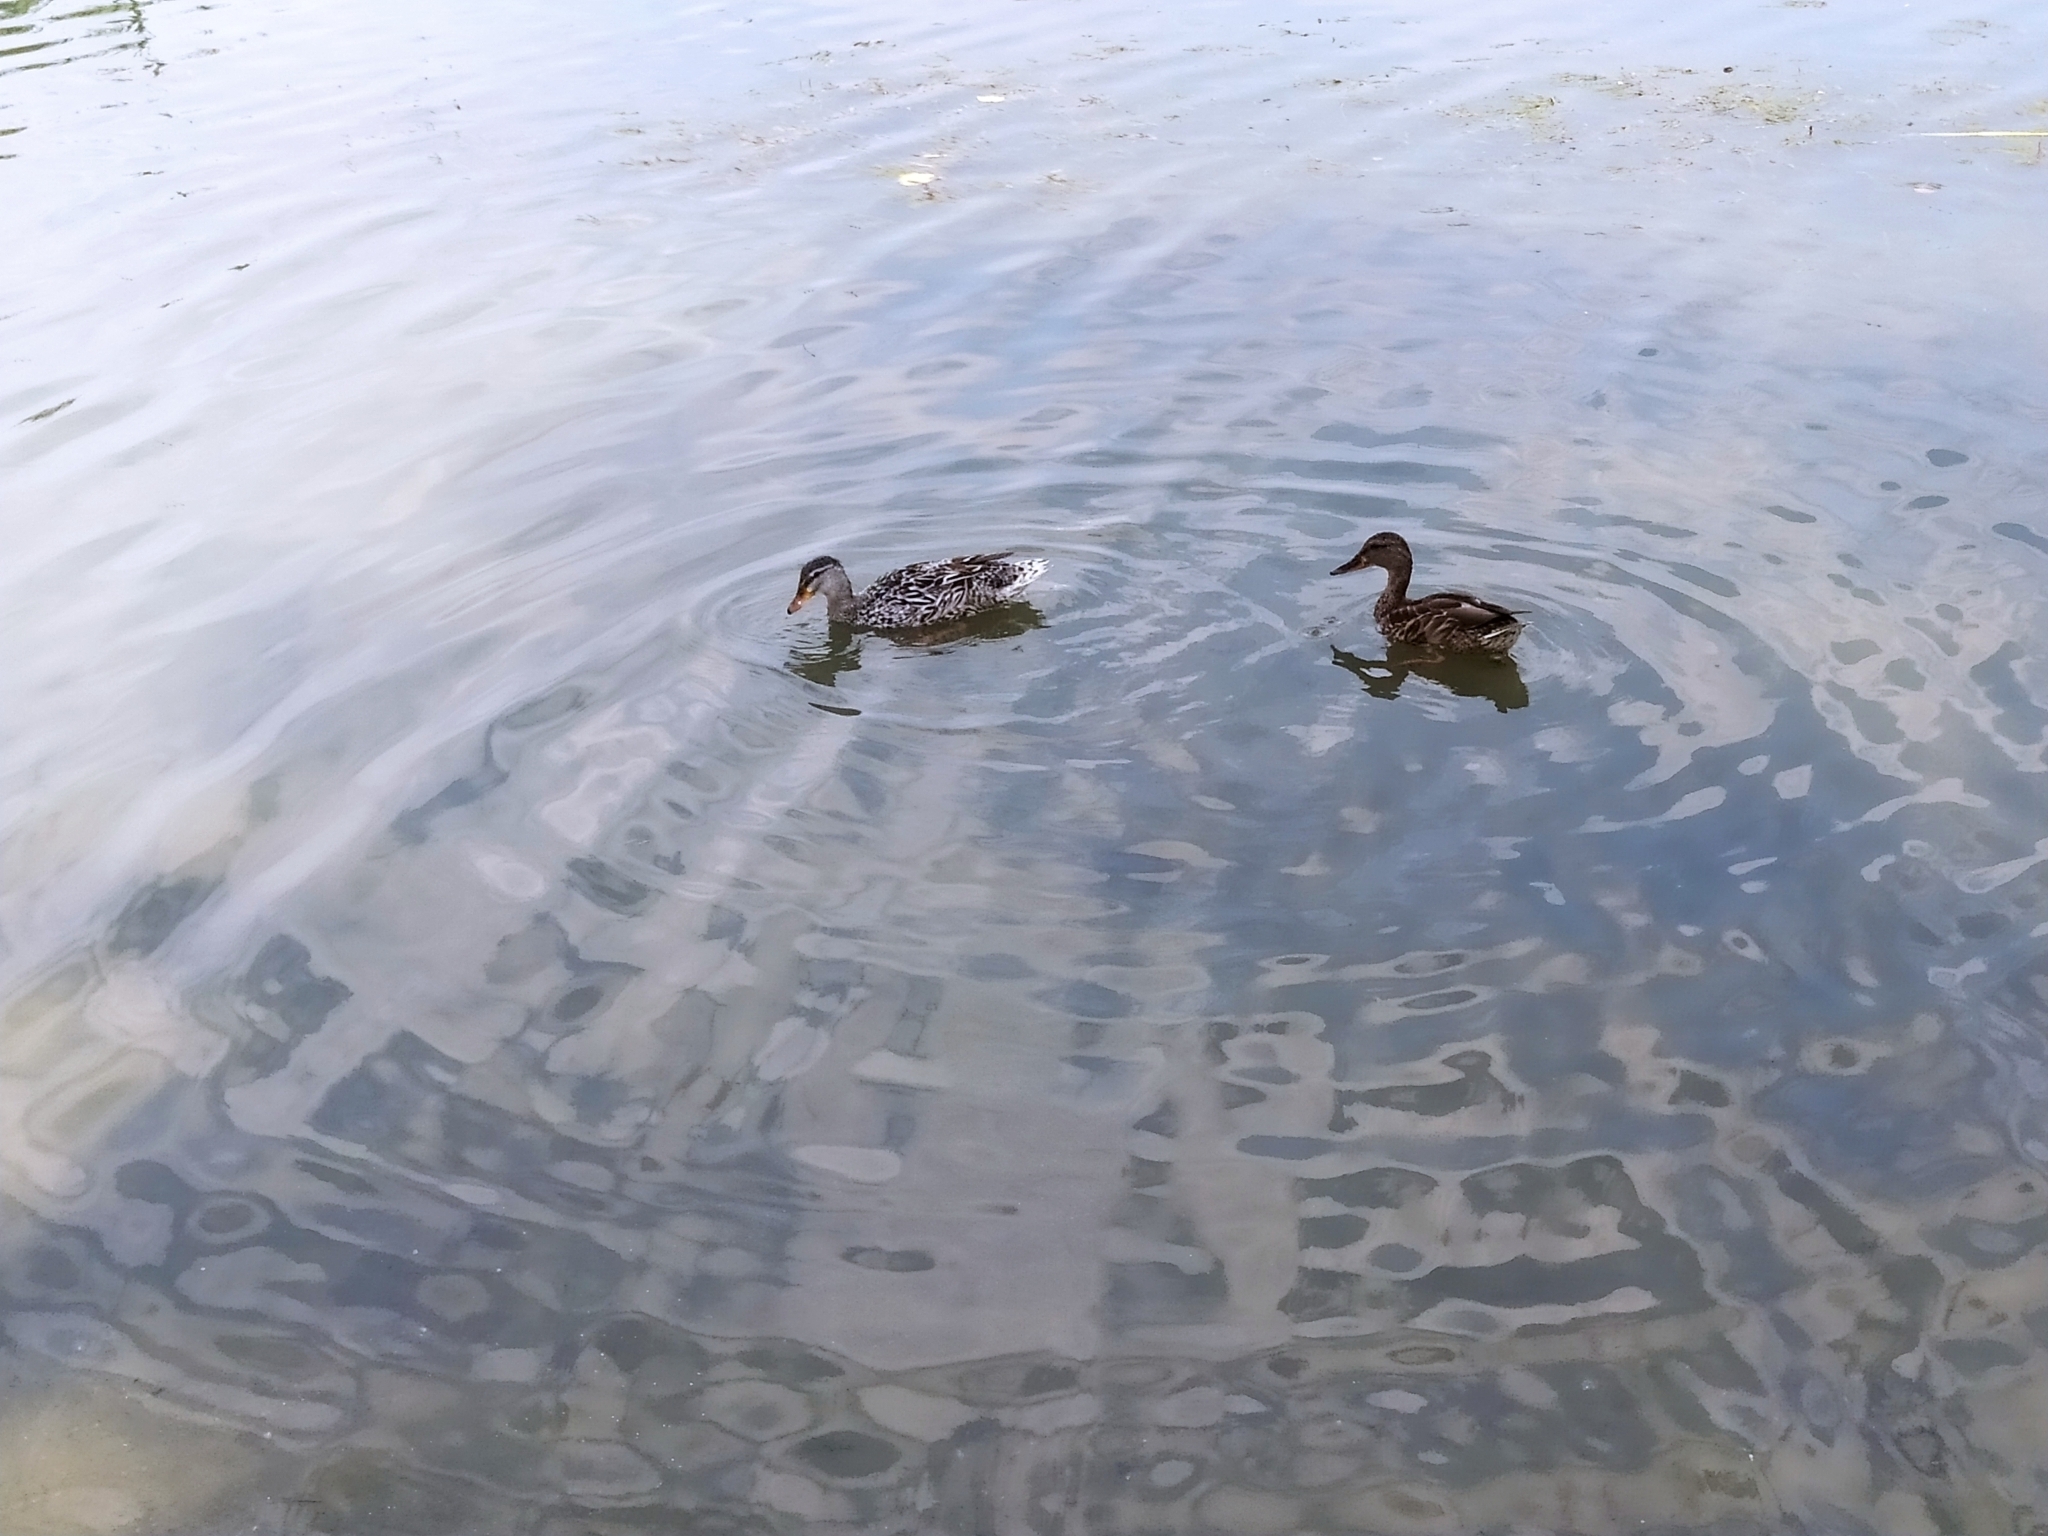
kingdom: Animalia
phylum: Chordata
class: Aves
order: Anseriformes
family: Anatidae
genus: Anas
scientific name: Anas platyrhynchos
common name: Mallard
